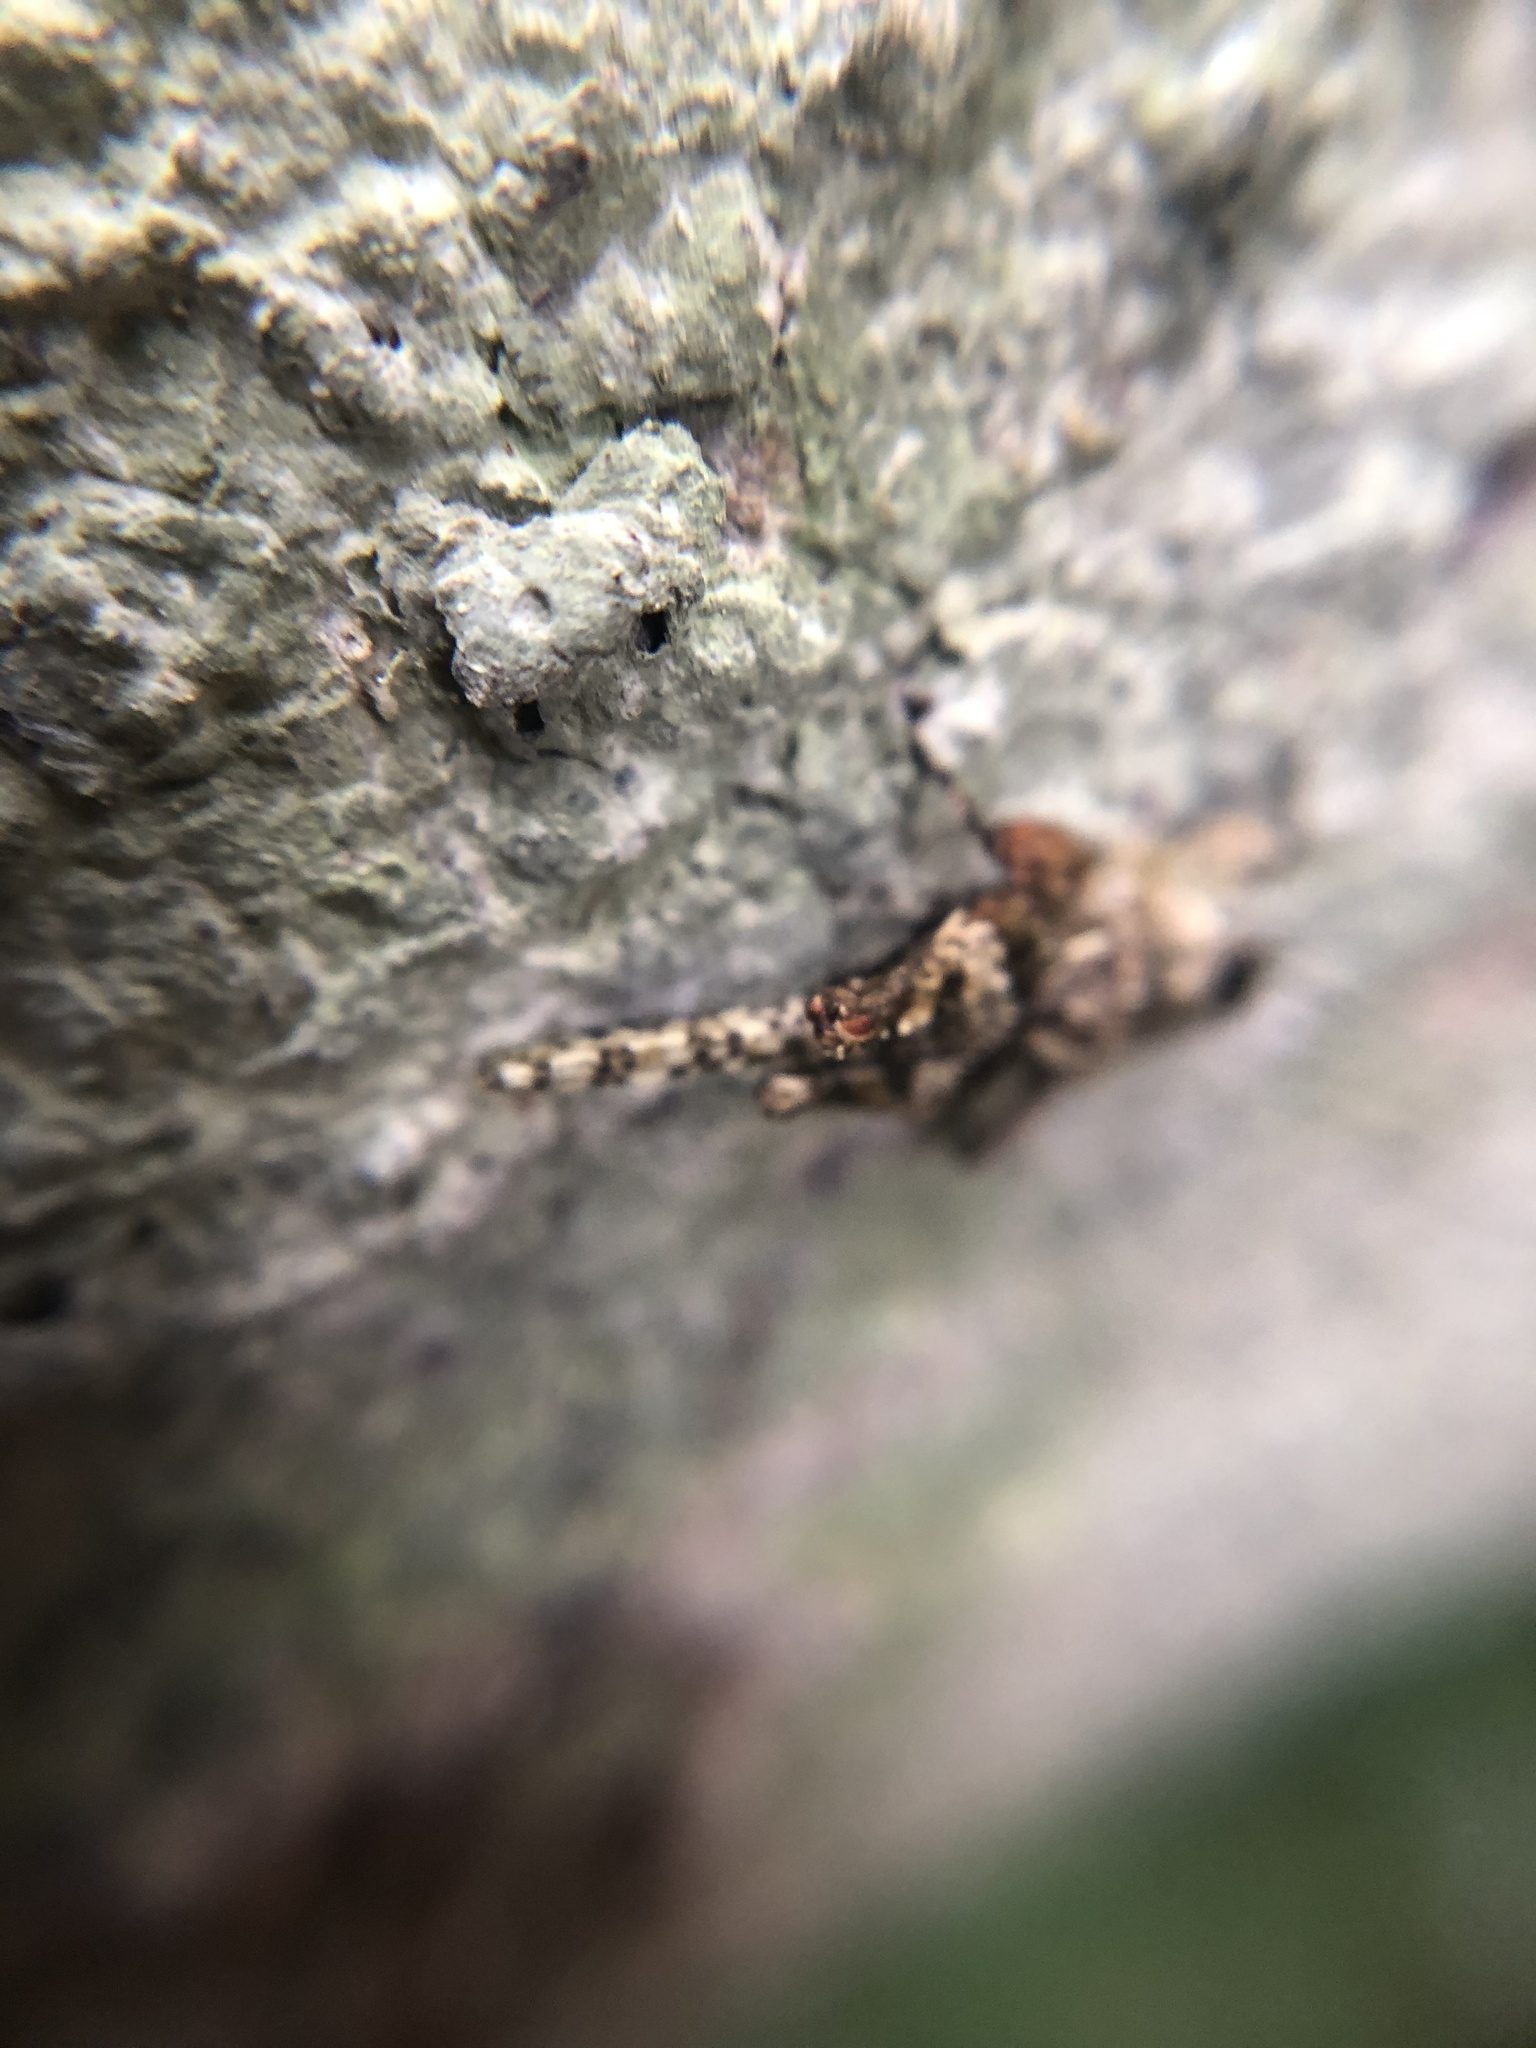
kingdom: Animalia
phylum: Arthropoda
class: Insecta
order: Orthoptera
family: Tetrigidae
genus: Amorphopus
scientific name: Amorphopus notabilis
